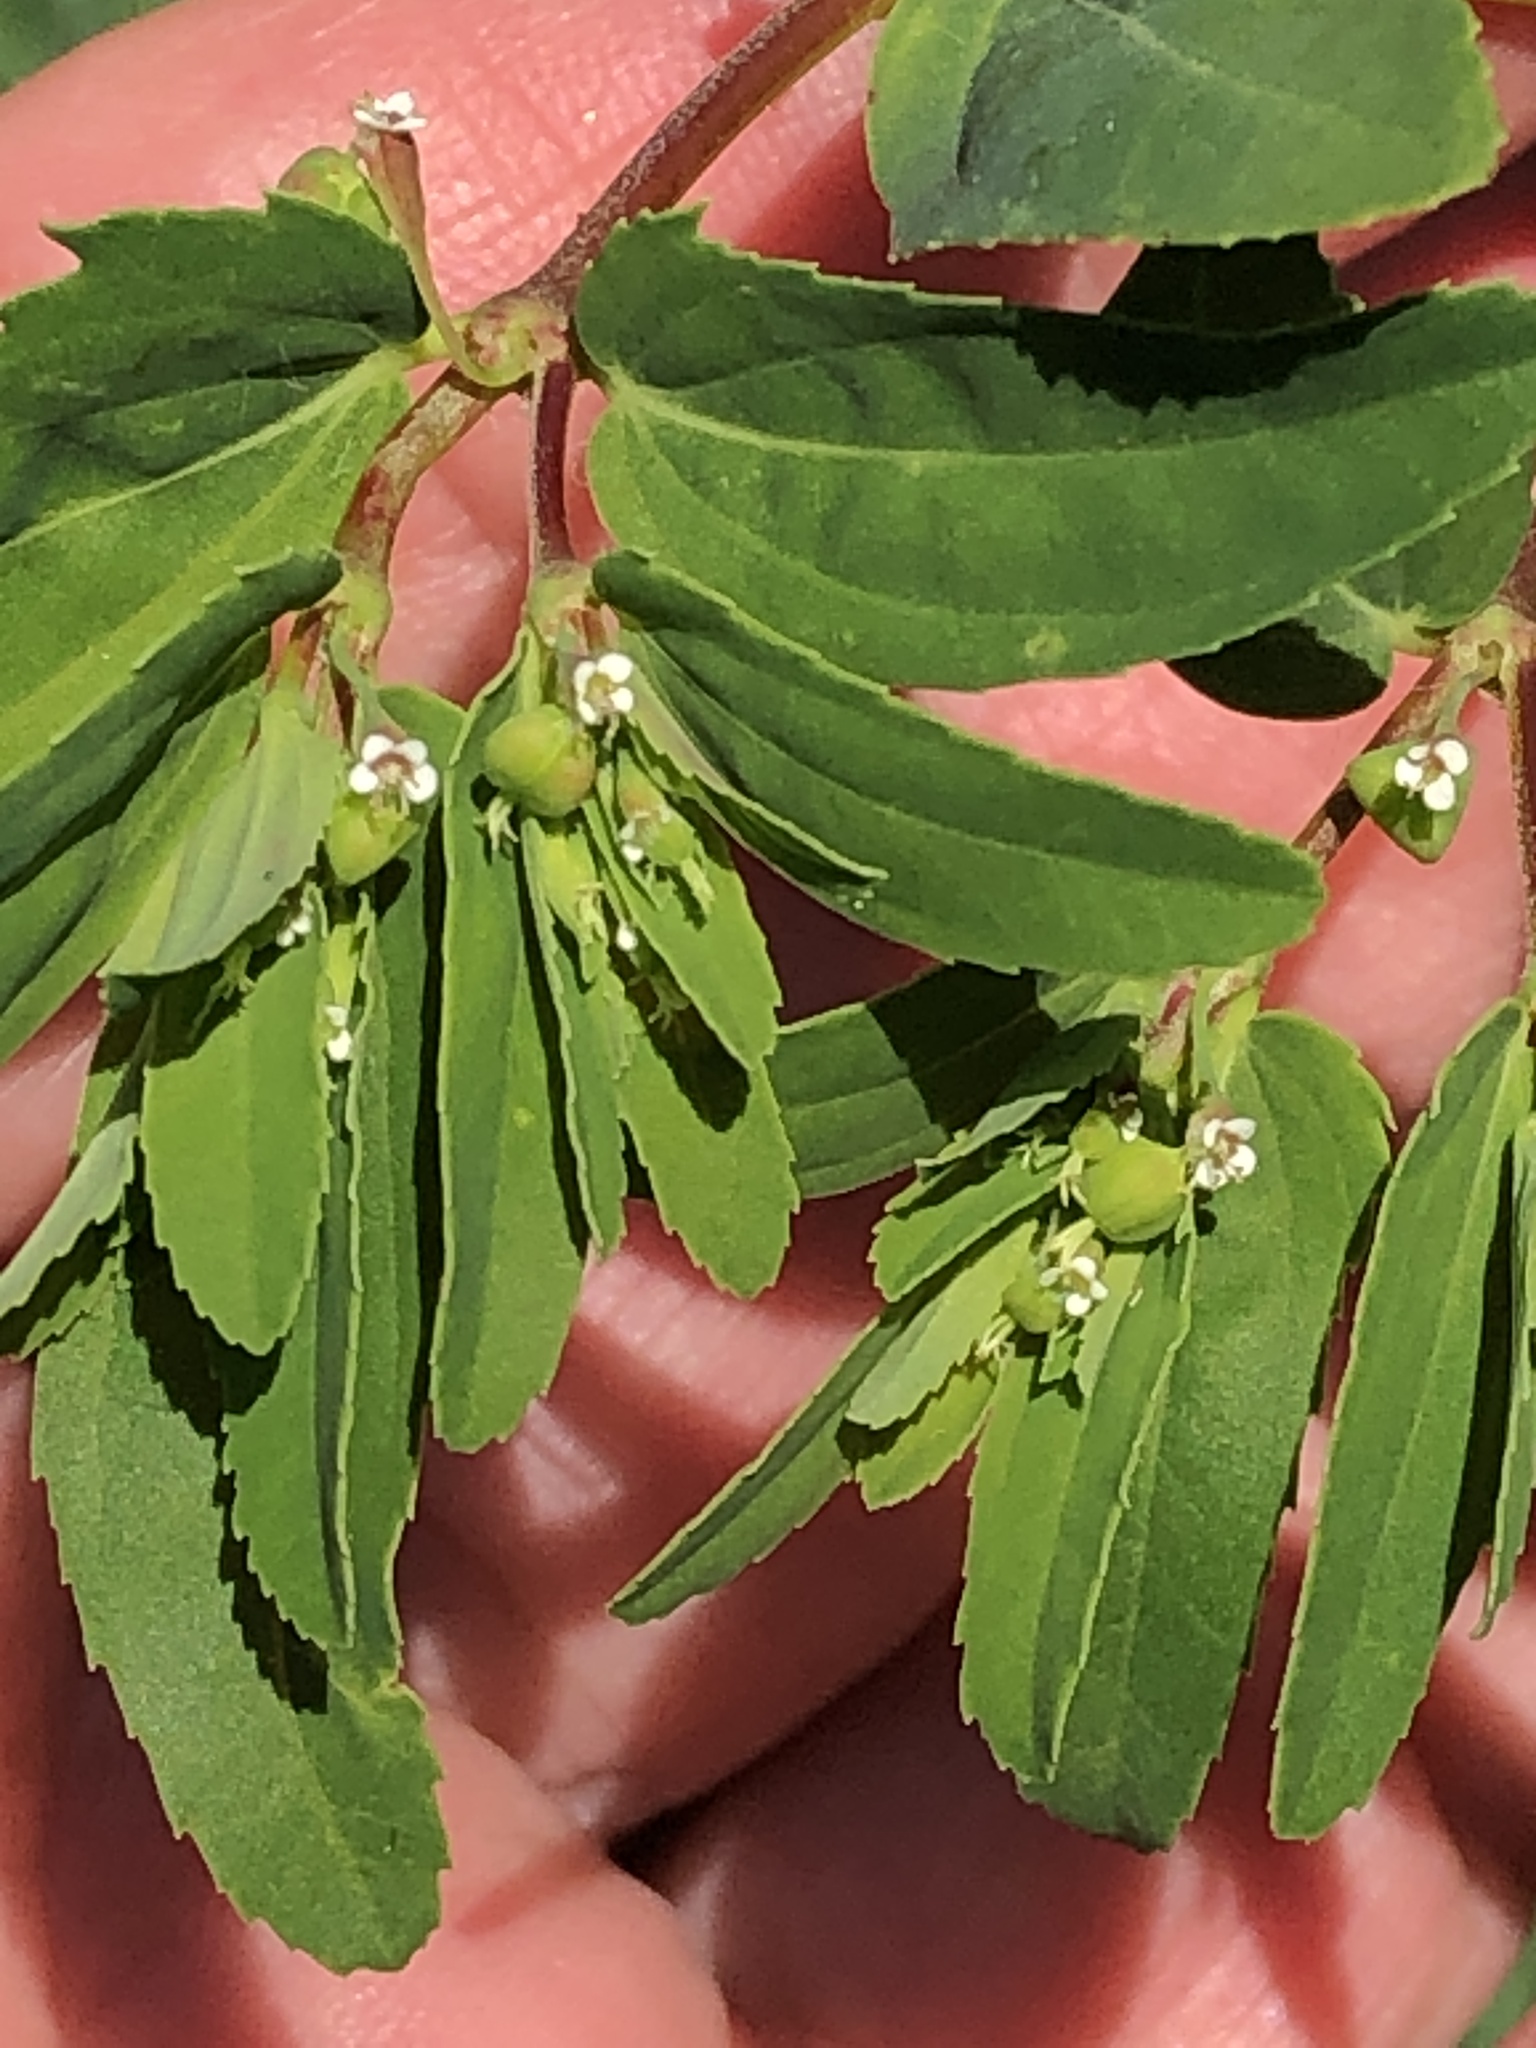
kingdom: Plantae
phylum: Tracheophyta
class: Magnoliopsida
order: Malpighiales
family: Euphorbiaceae
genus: Euphorbia
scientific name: Euphorbia nutans
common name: Eyebane
